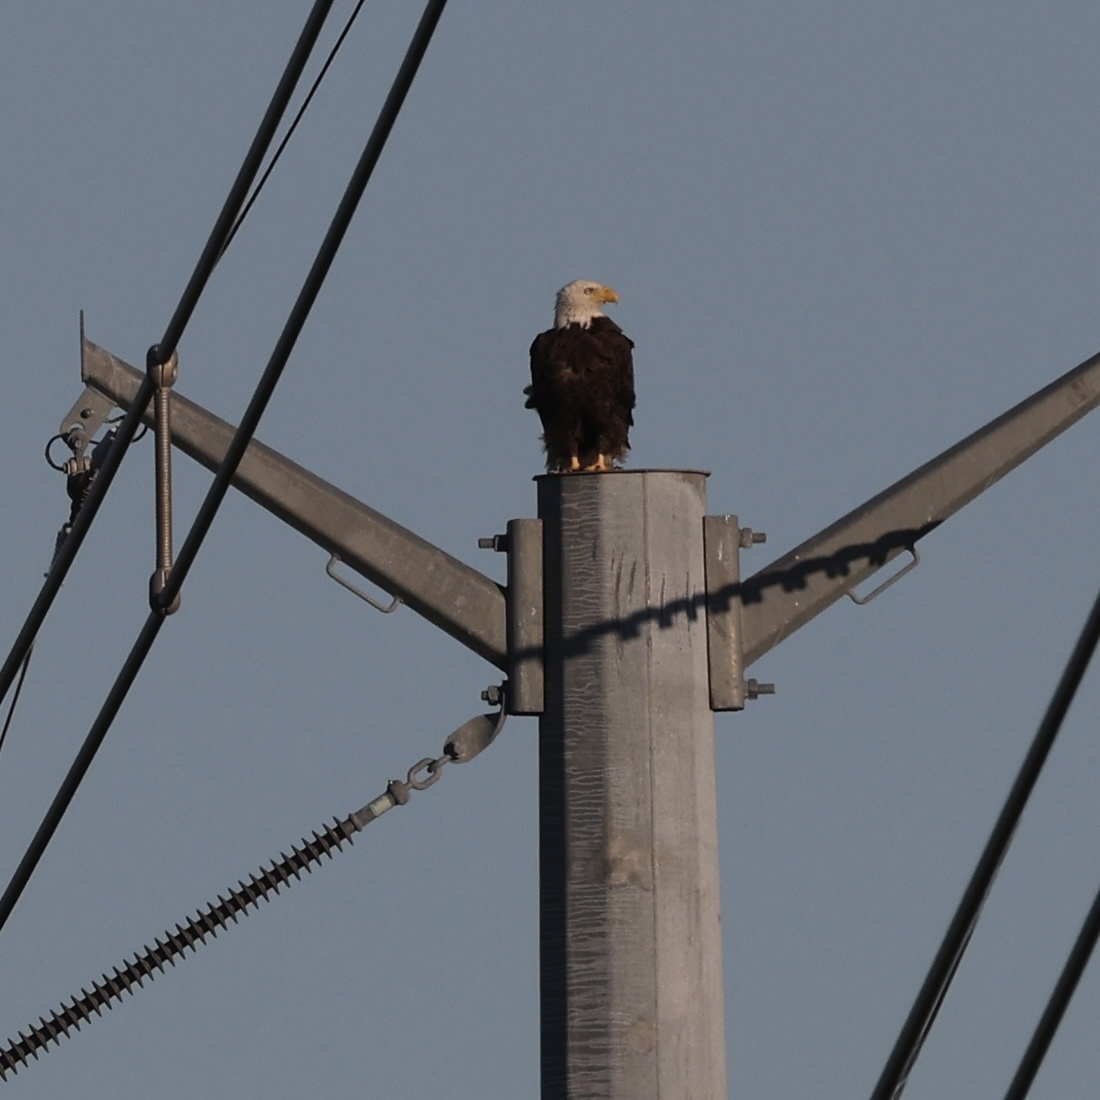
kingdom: Animalia
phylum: Chordata
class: Aves
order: Accipitriformes
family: Accipitridae
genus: Haliaeetus
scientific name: Haliaeetus leucocephalus
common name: Bald eagle
